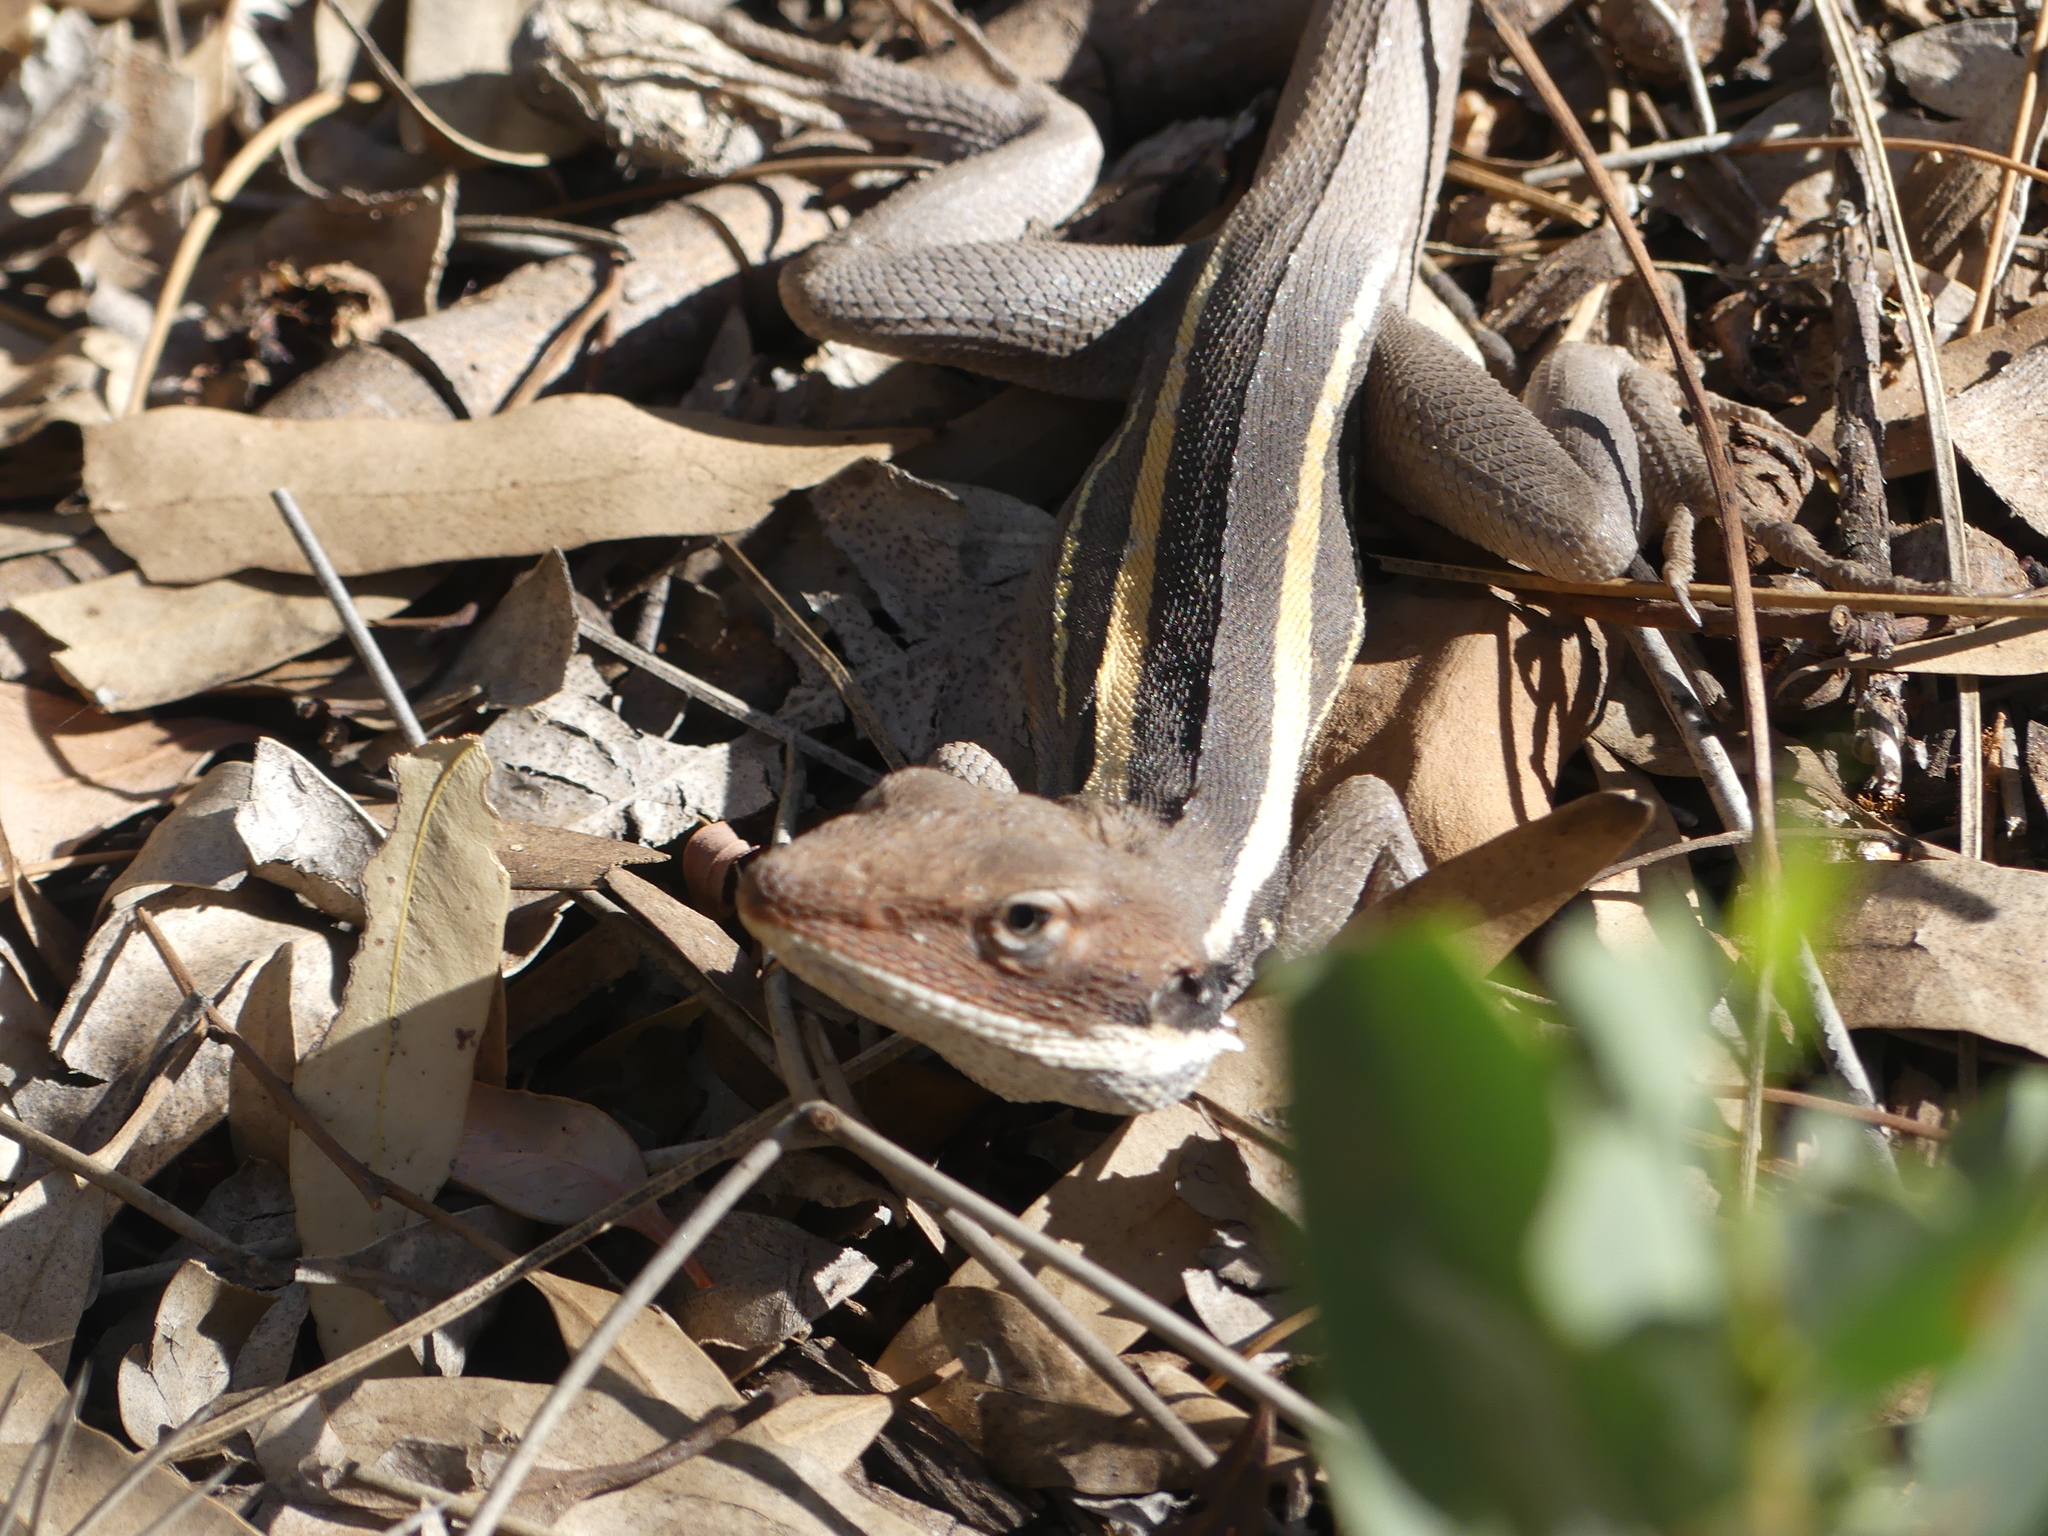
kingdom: Animalia
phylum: Chordata
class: Squamata
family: Agamidae
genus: Gowidon
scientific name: Gowidon longirostris
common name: Long-nosed water dragon
